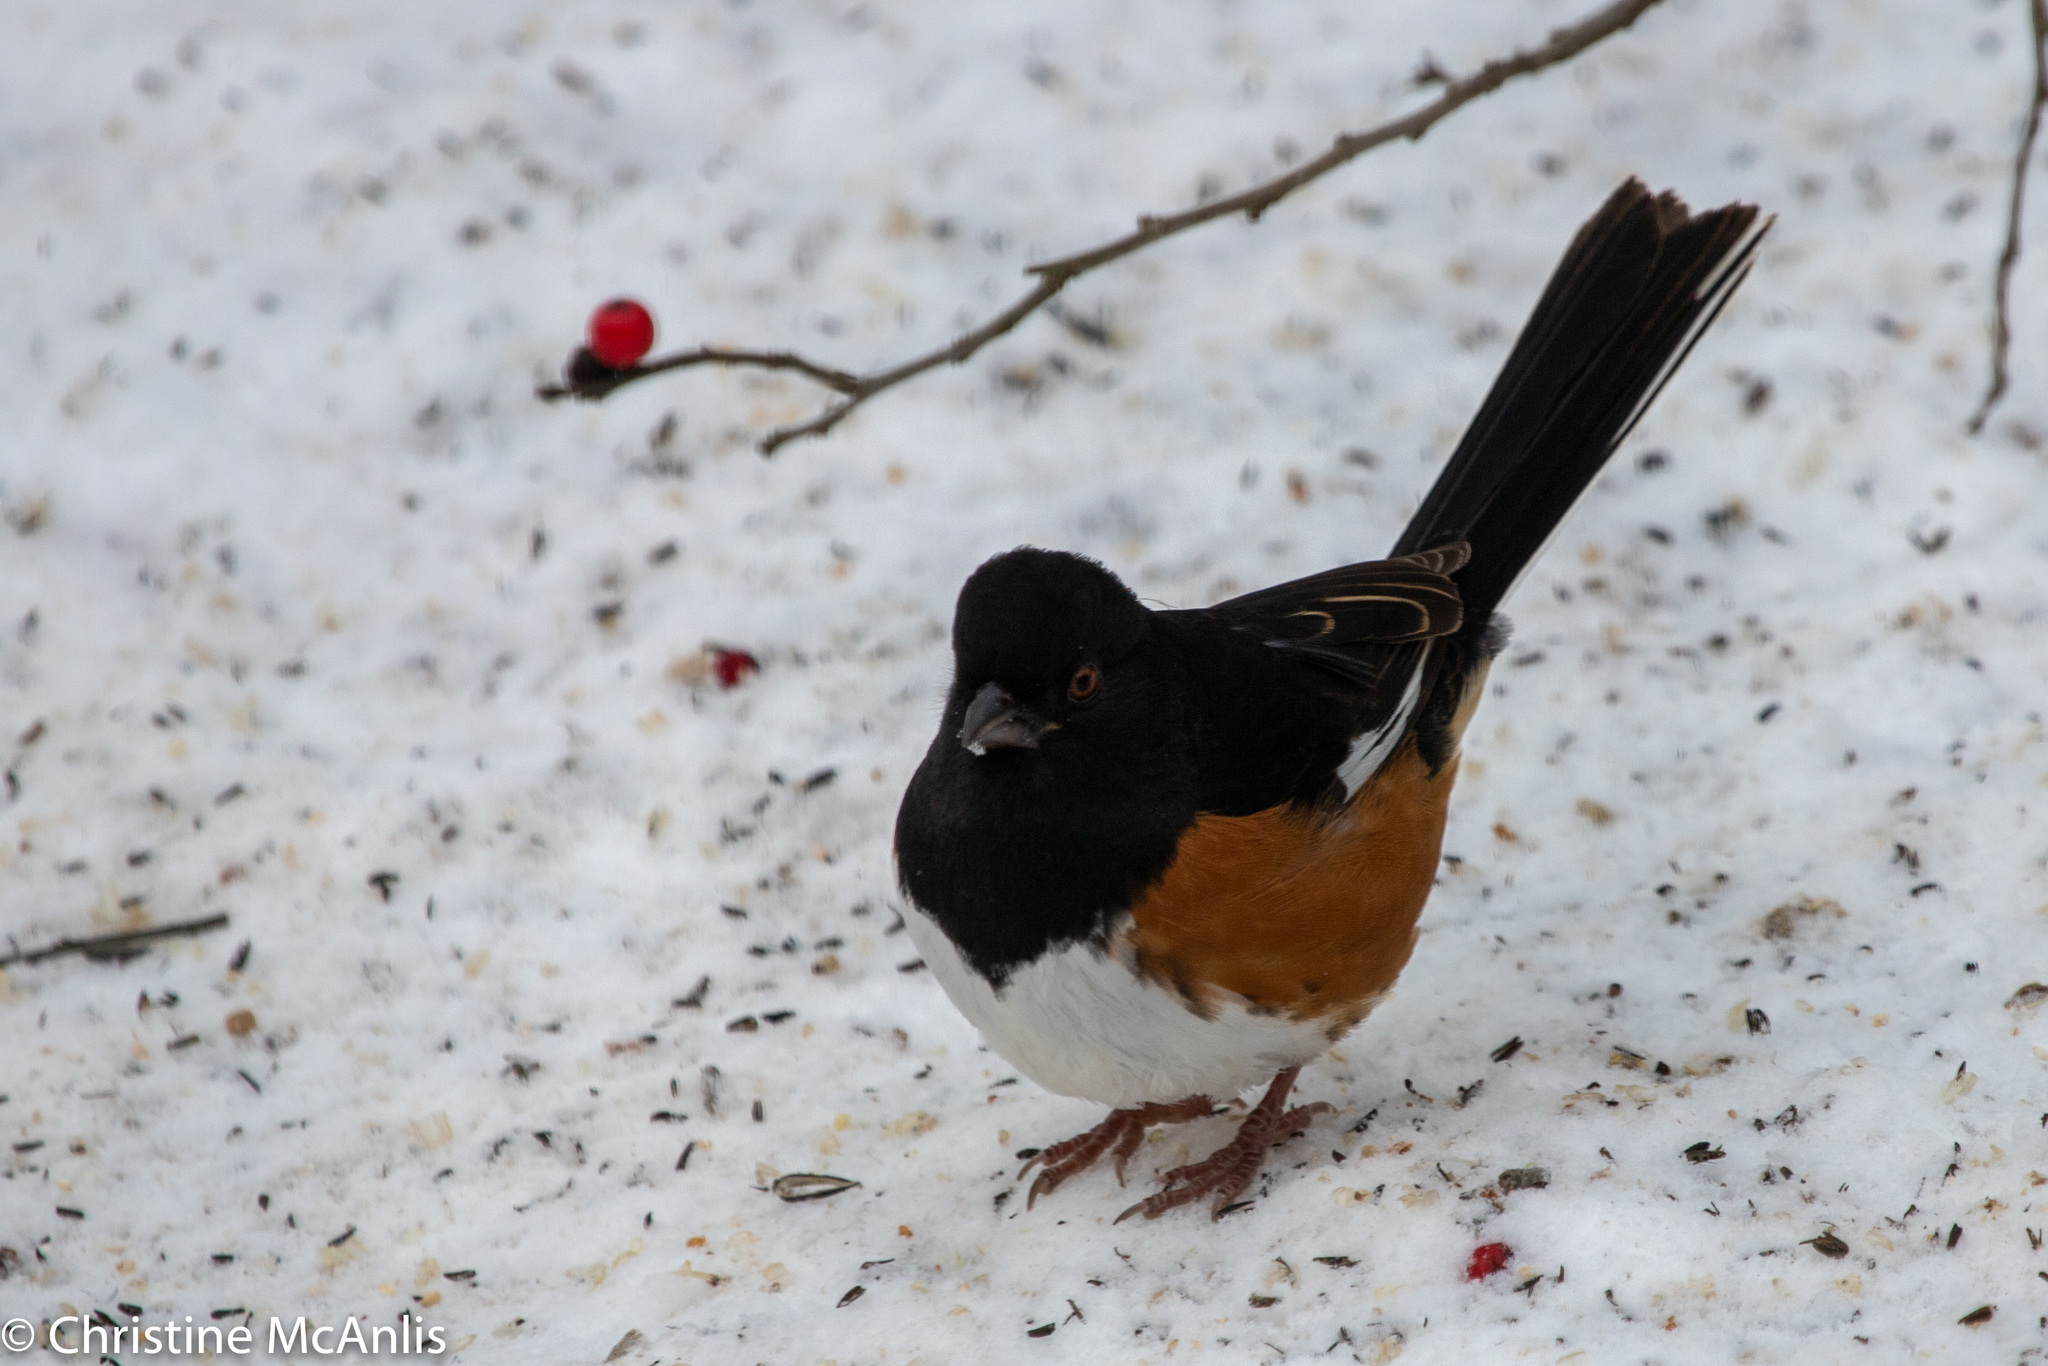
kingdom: Animalia
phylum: Chordata
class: Aves
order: Passeriformes
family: Passerellidae
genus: Pipilo
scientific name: Pipilo erythrophthalmus
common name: Eastern towhee
